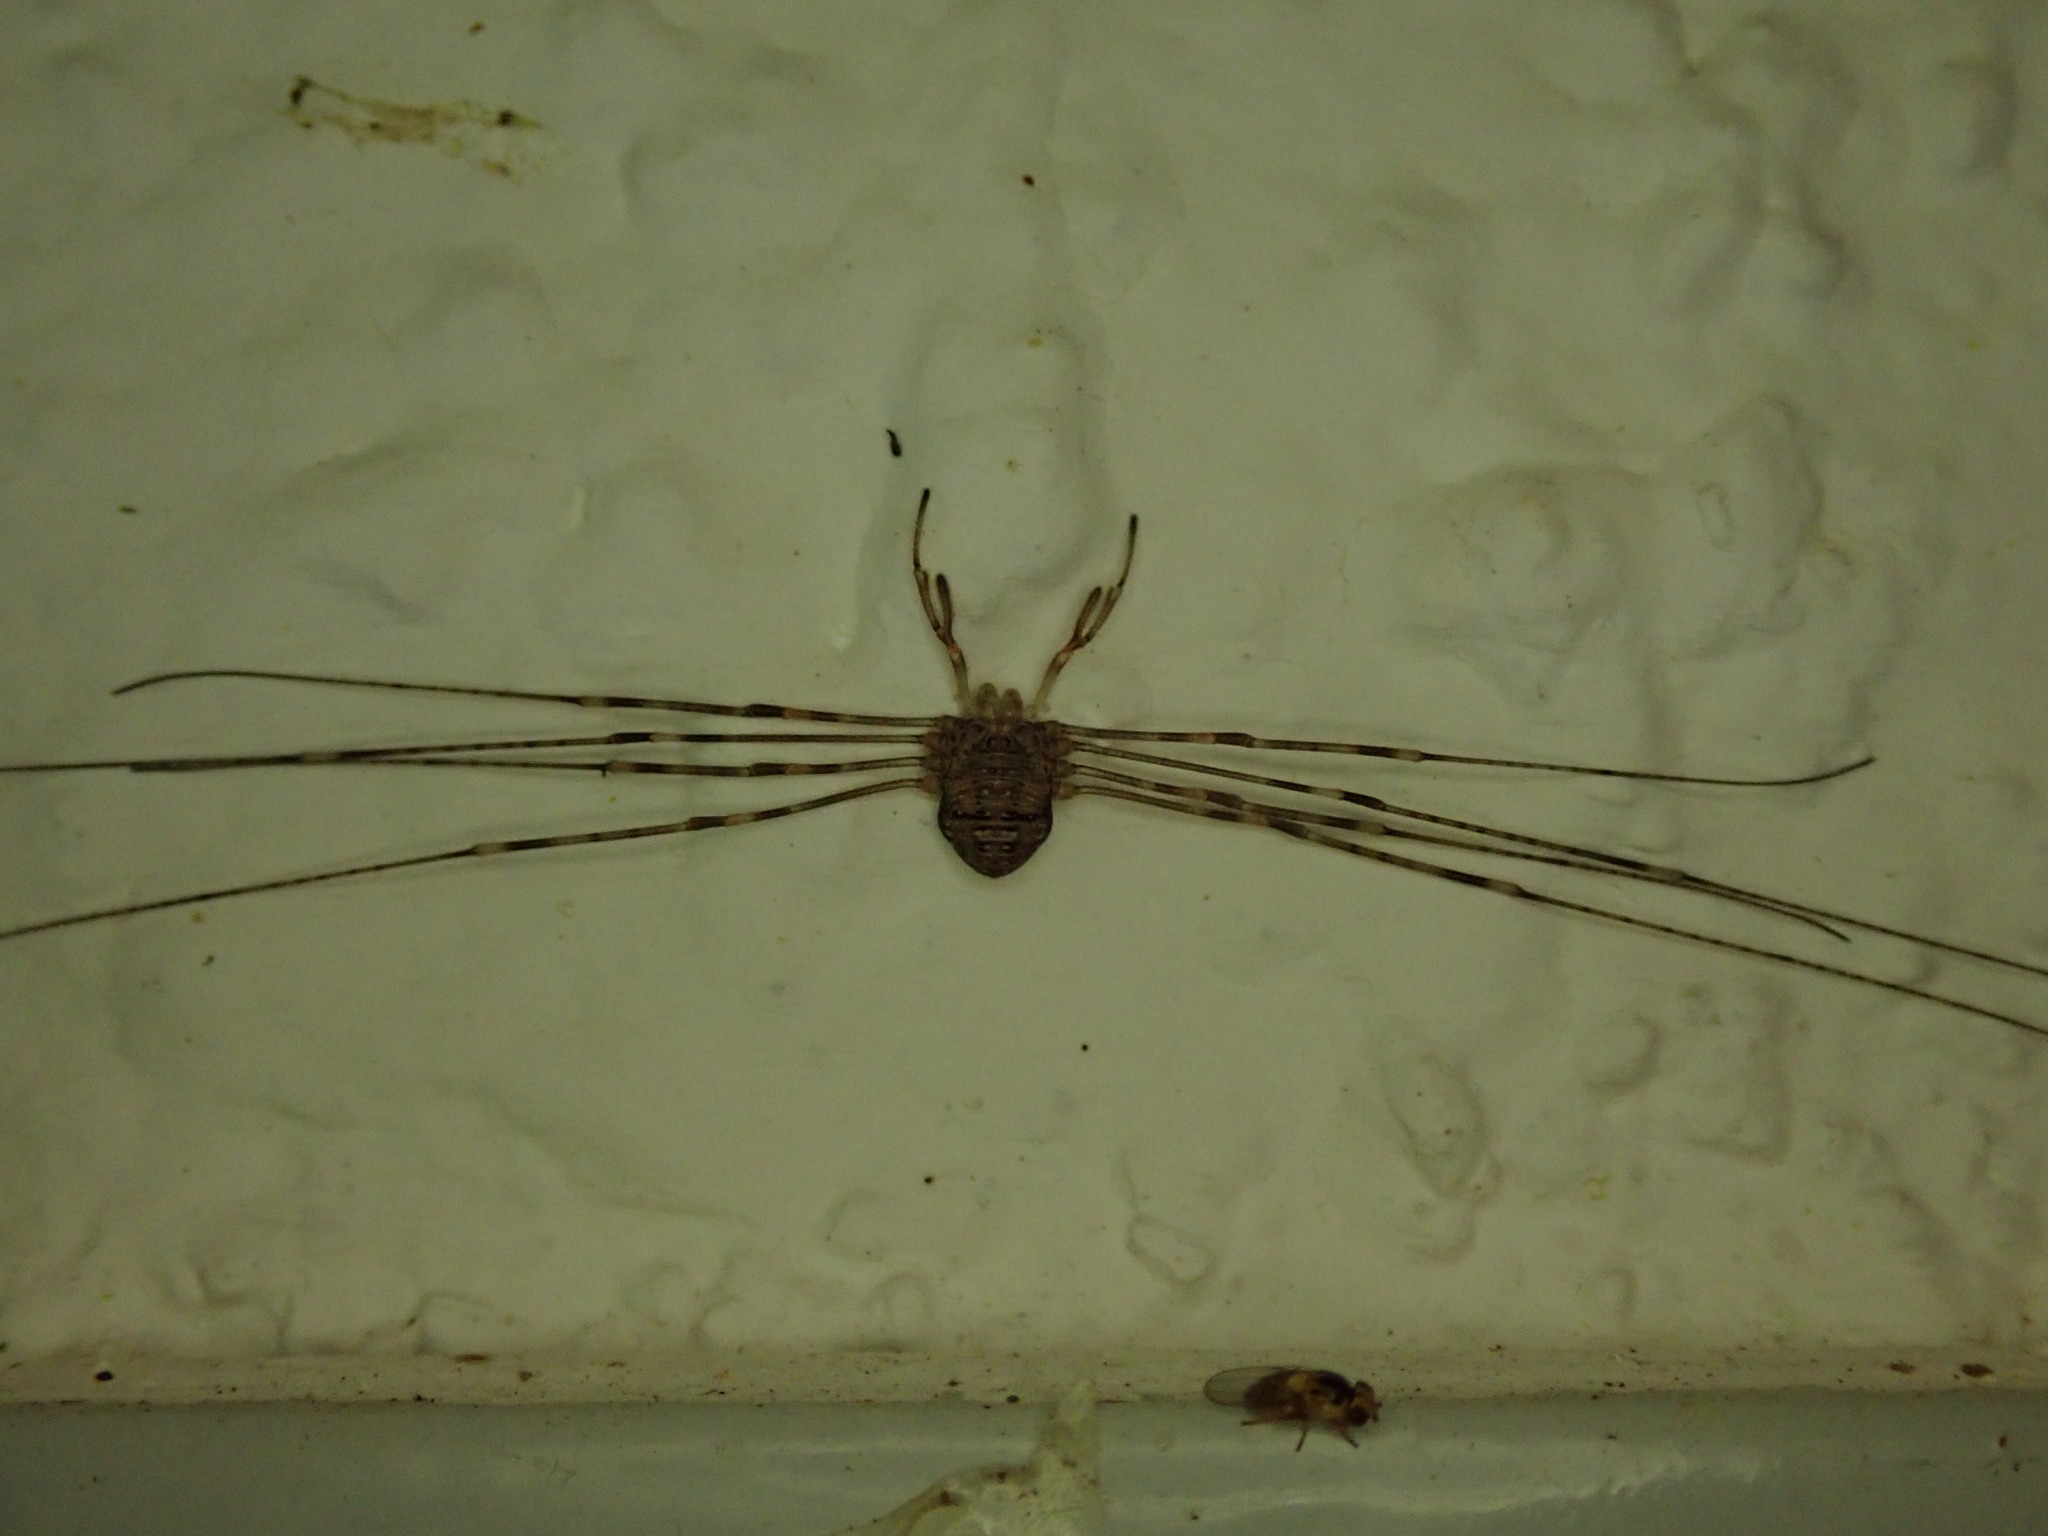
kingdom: Animalia
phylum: Arthropoda
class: Arachnida
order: Opiliones
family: Phalangiidae
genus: Dicranopalpus
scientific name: Dicranopalpus ramosus
